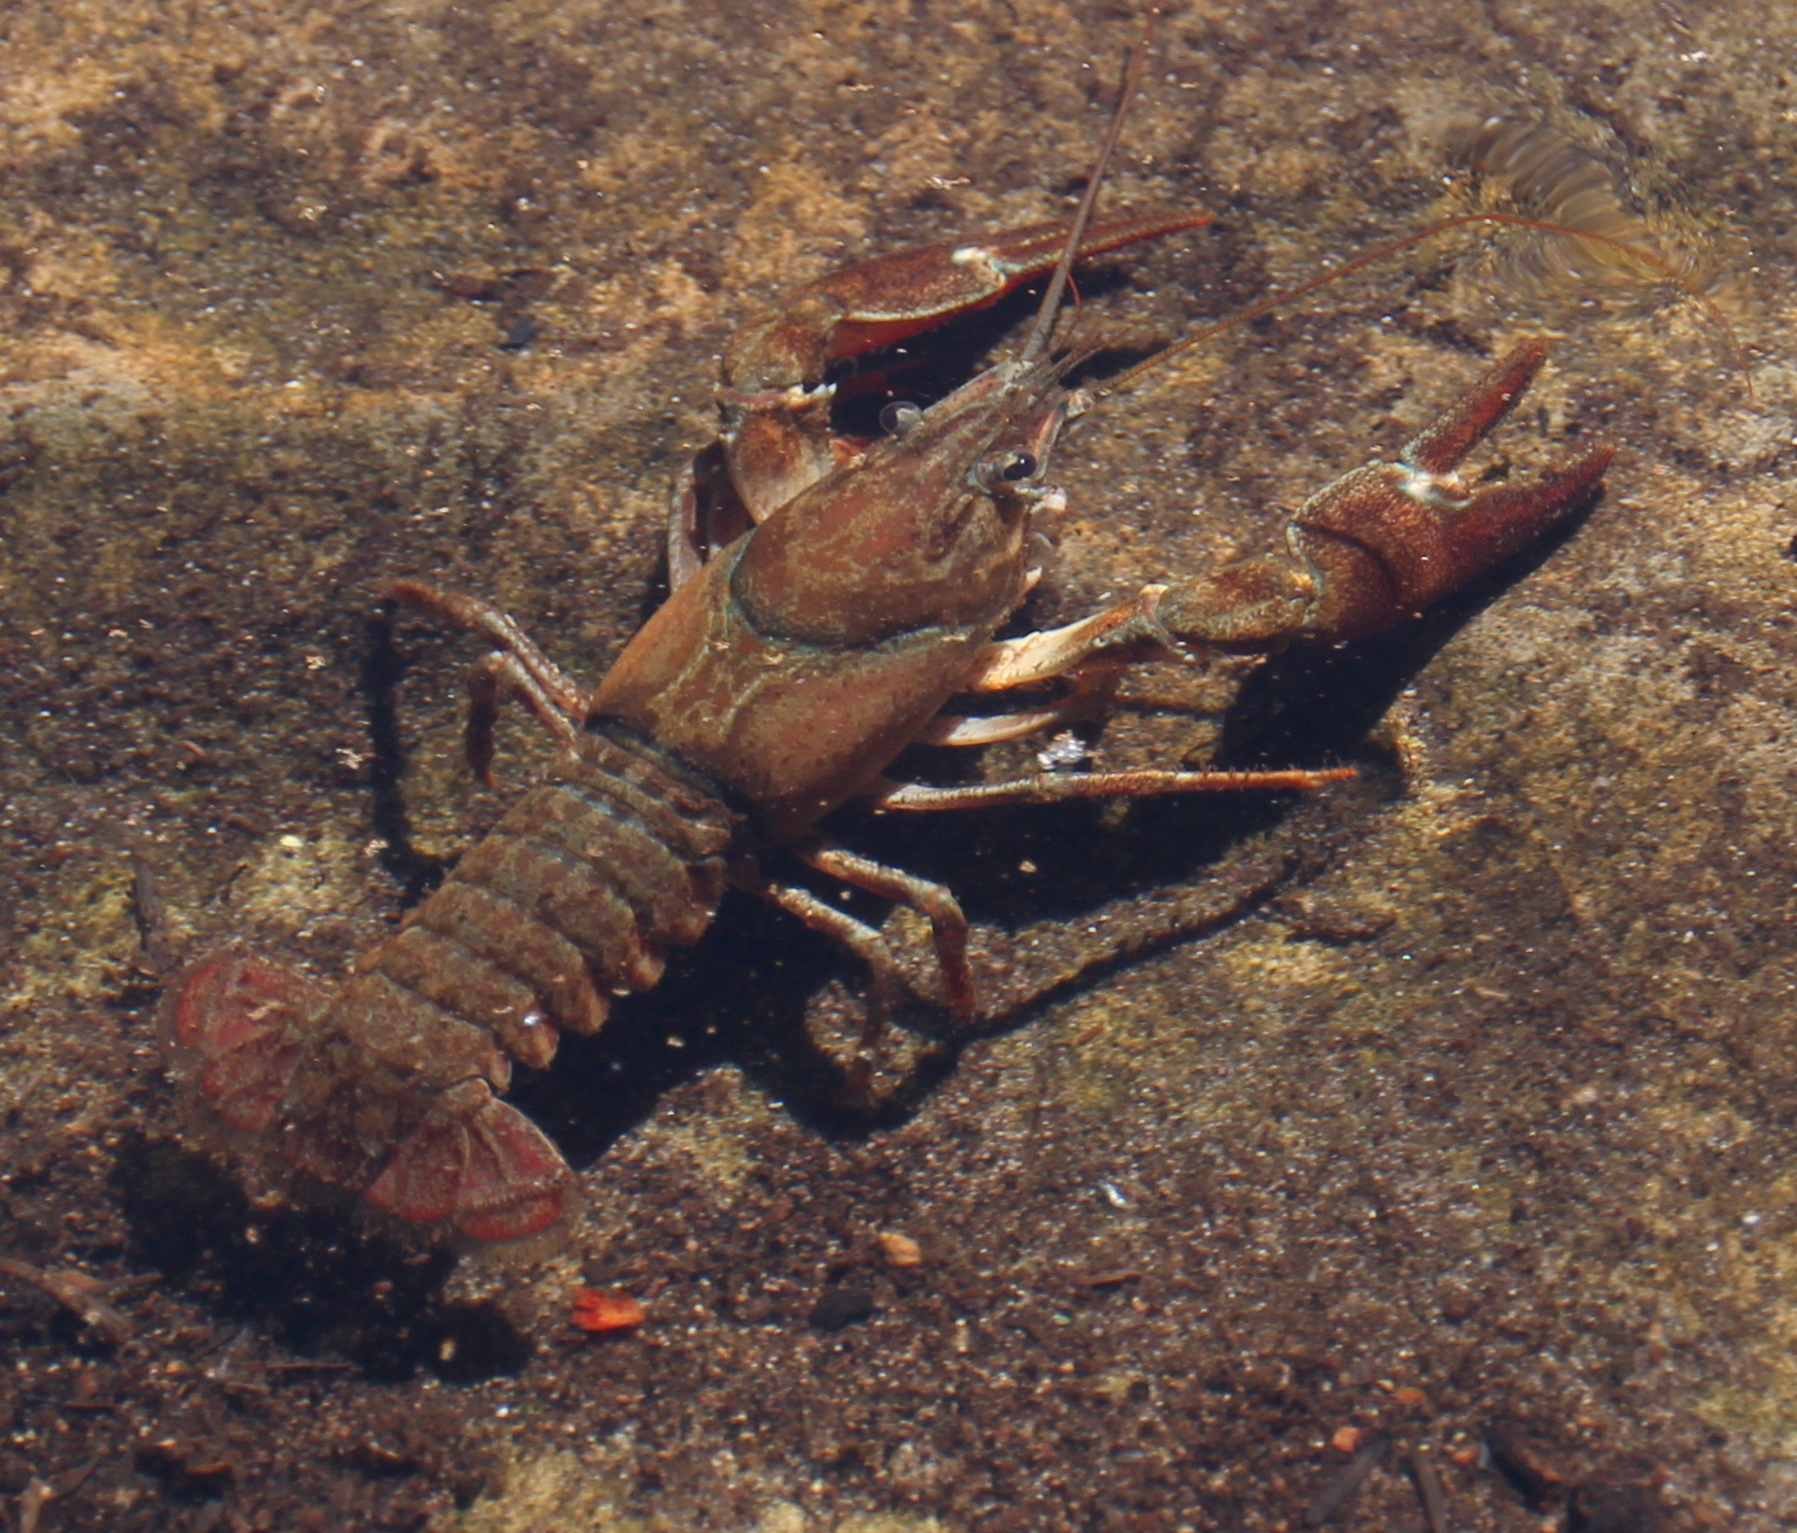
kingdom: Animalia
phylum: Arthropoda
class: Malacostraca
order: Decapoda
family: Astacidae
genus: Pacifastacus
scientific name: Pacifastacus leniusculus
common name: Signal crayfish
